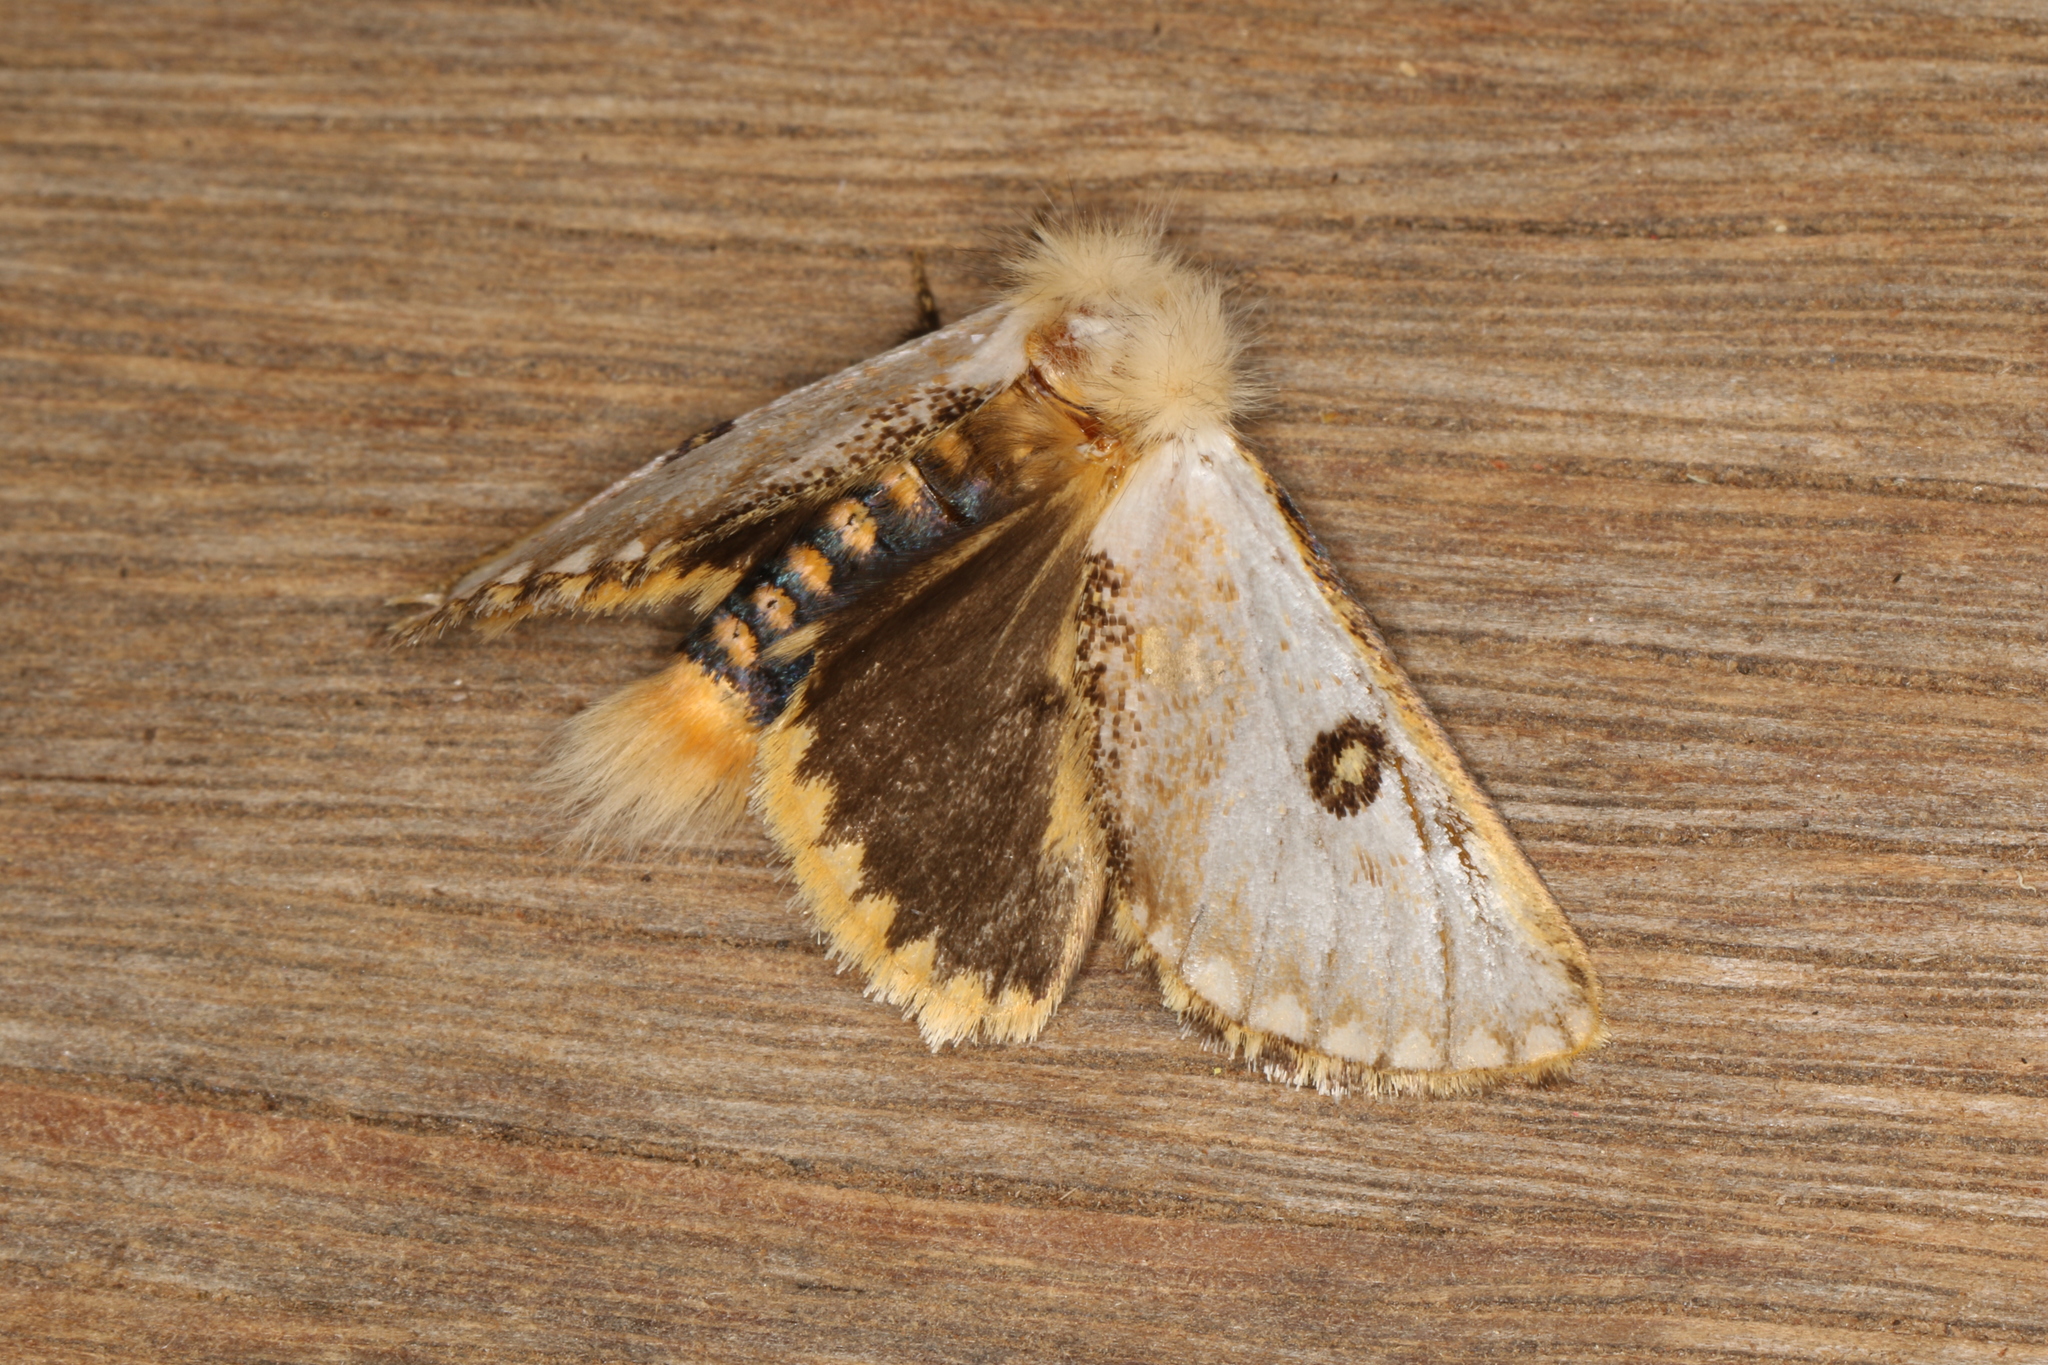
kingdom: Animalia
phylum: Arthropoda
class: Insecta
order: Lepidoptera
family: Notodontidae
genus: Epicoma
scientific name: Epicoma melanosticta
